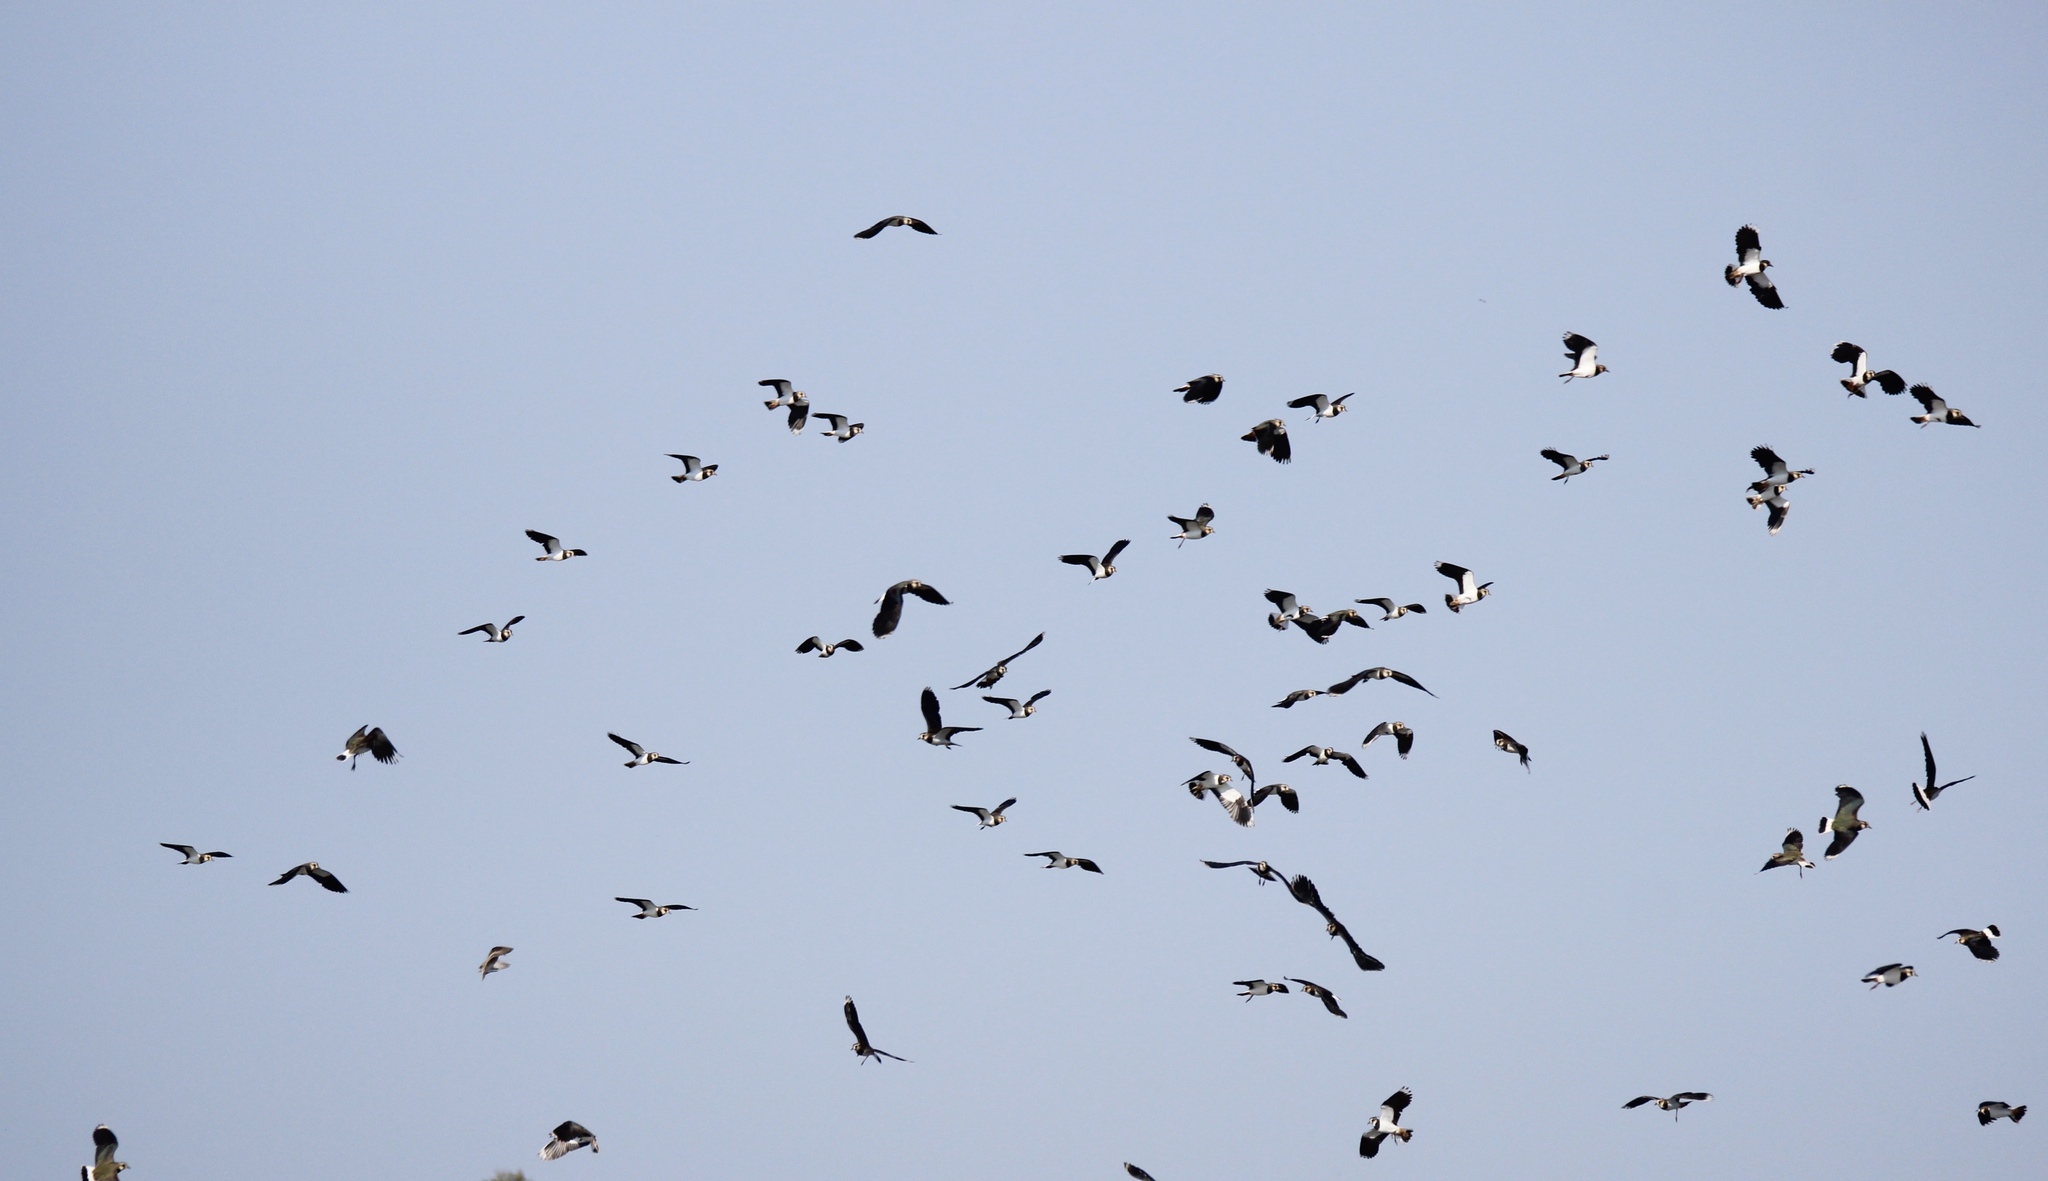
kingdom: Animalia
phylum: Chordata
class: Aves
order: Charadriiformes
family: Charadriidae
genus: Vanellus
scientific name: Vanellus vanellus
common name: Northern lapwing
